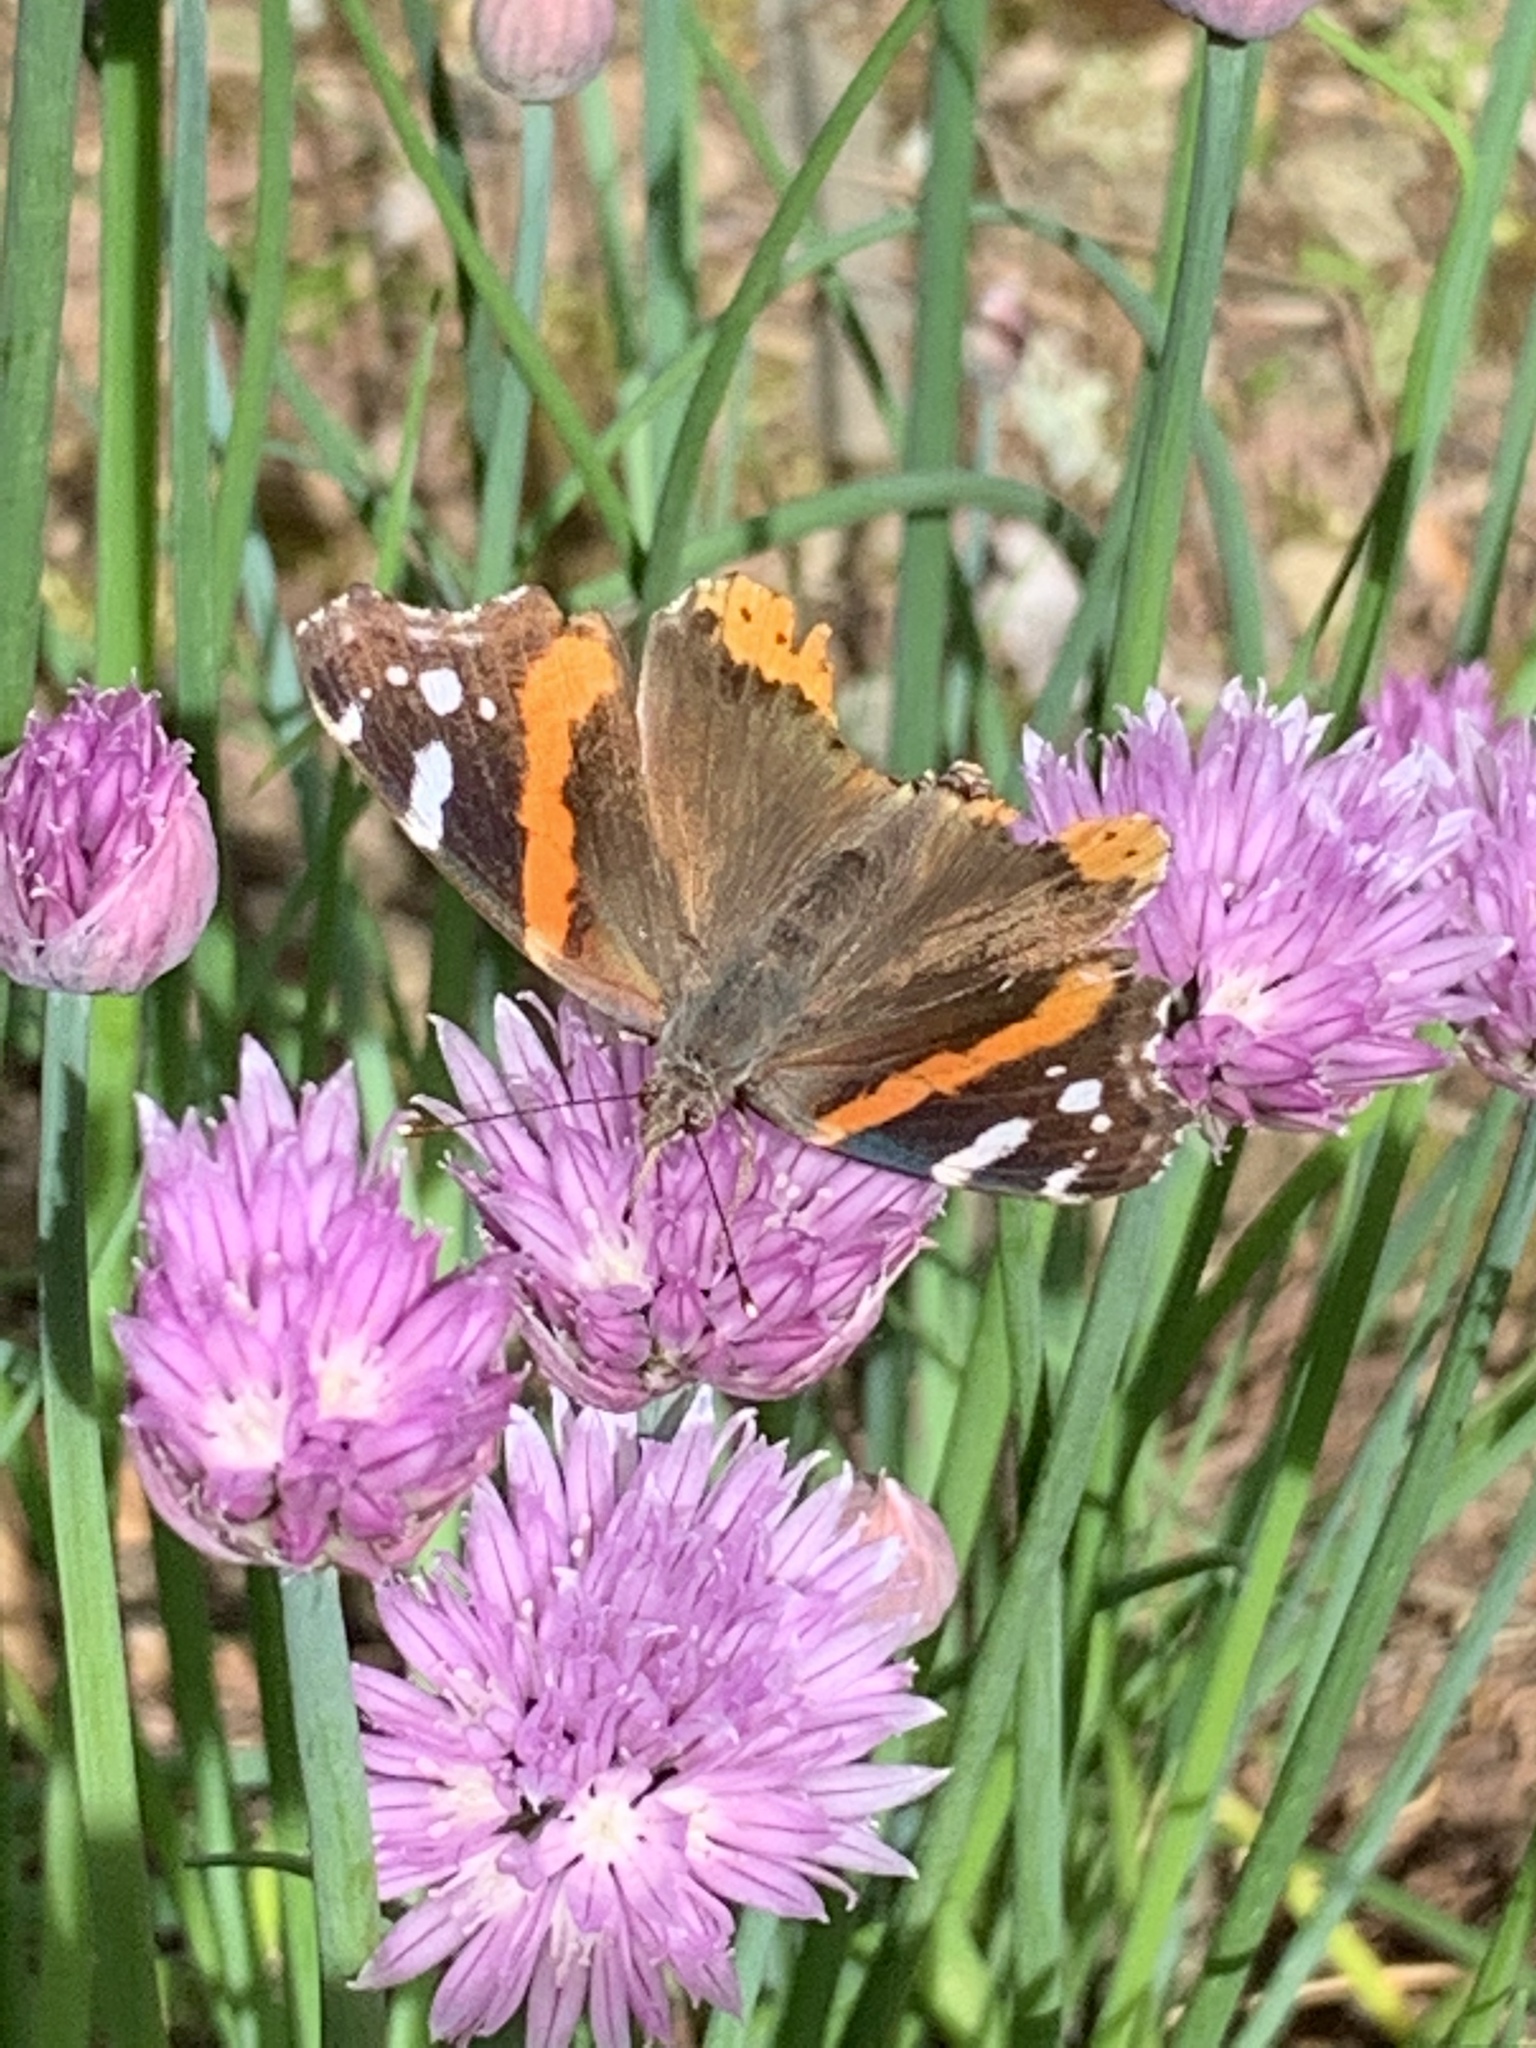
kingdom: Animalia
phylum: Arthropoda
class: Insecta
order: Lepidoptera
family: Nymphalidae
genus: Vanessa
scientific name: Vanessa atalanta
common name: Red admiral
